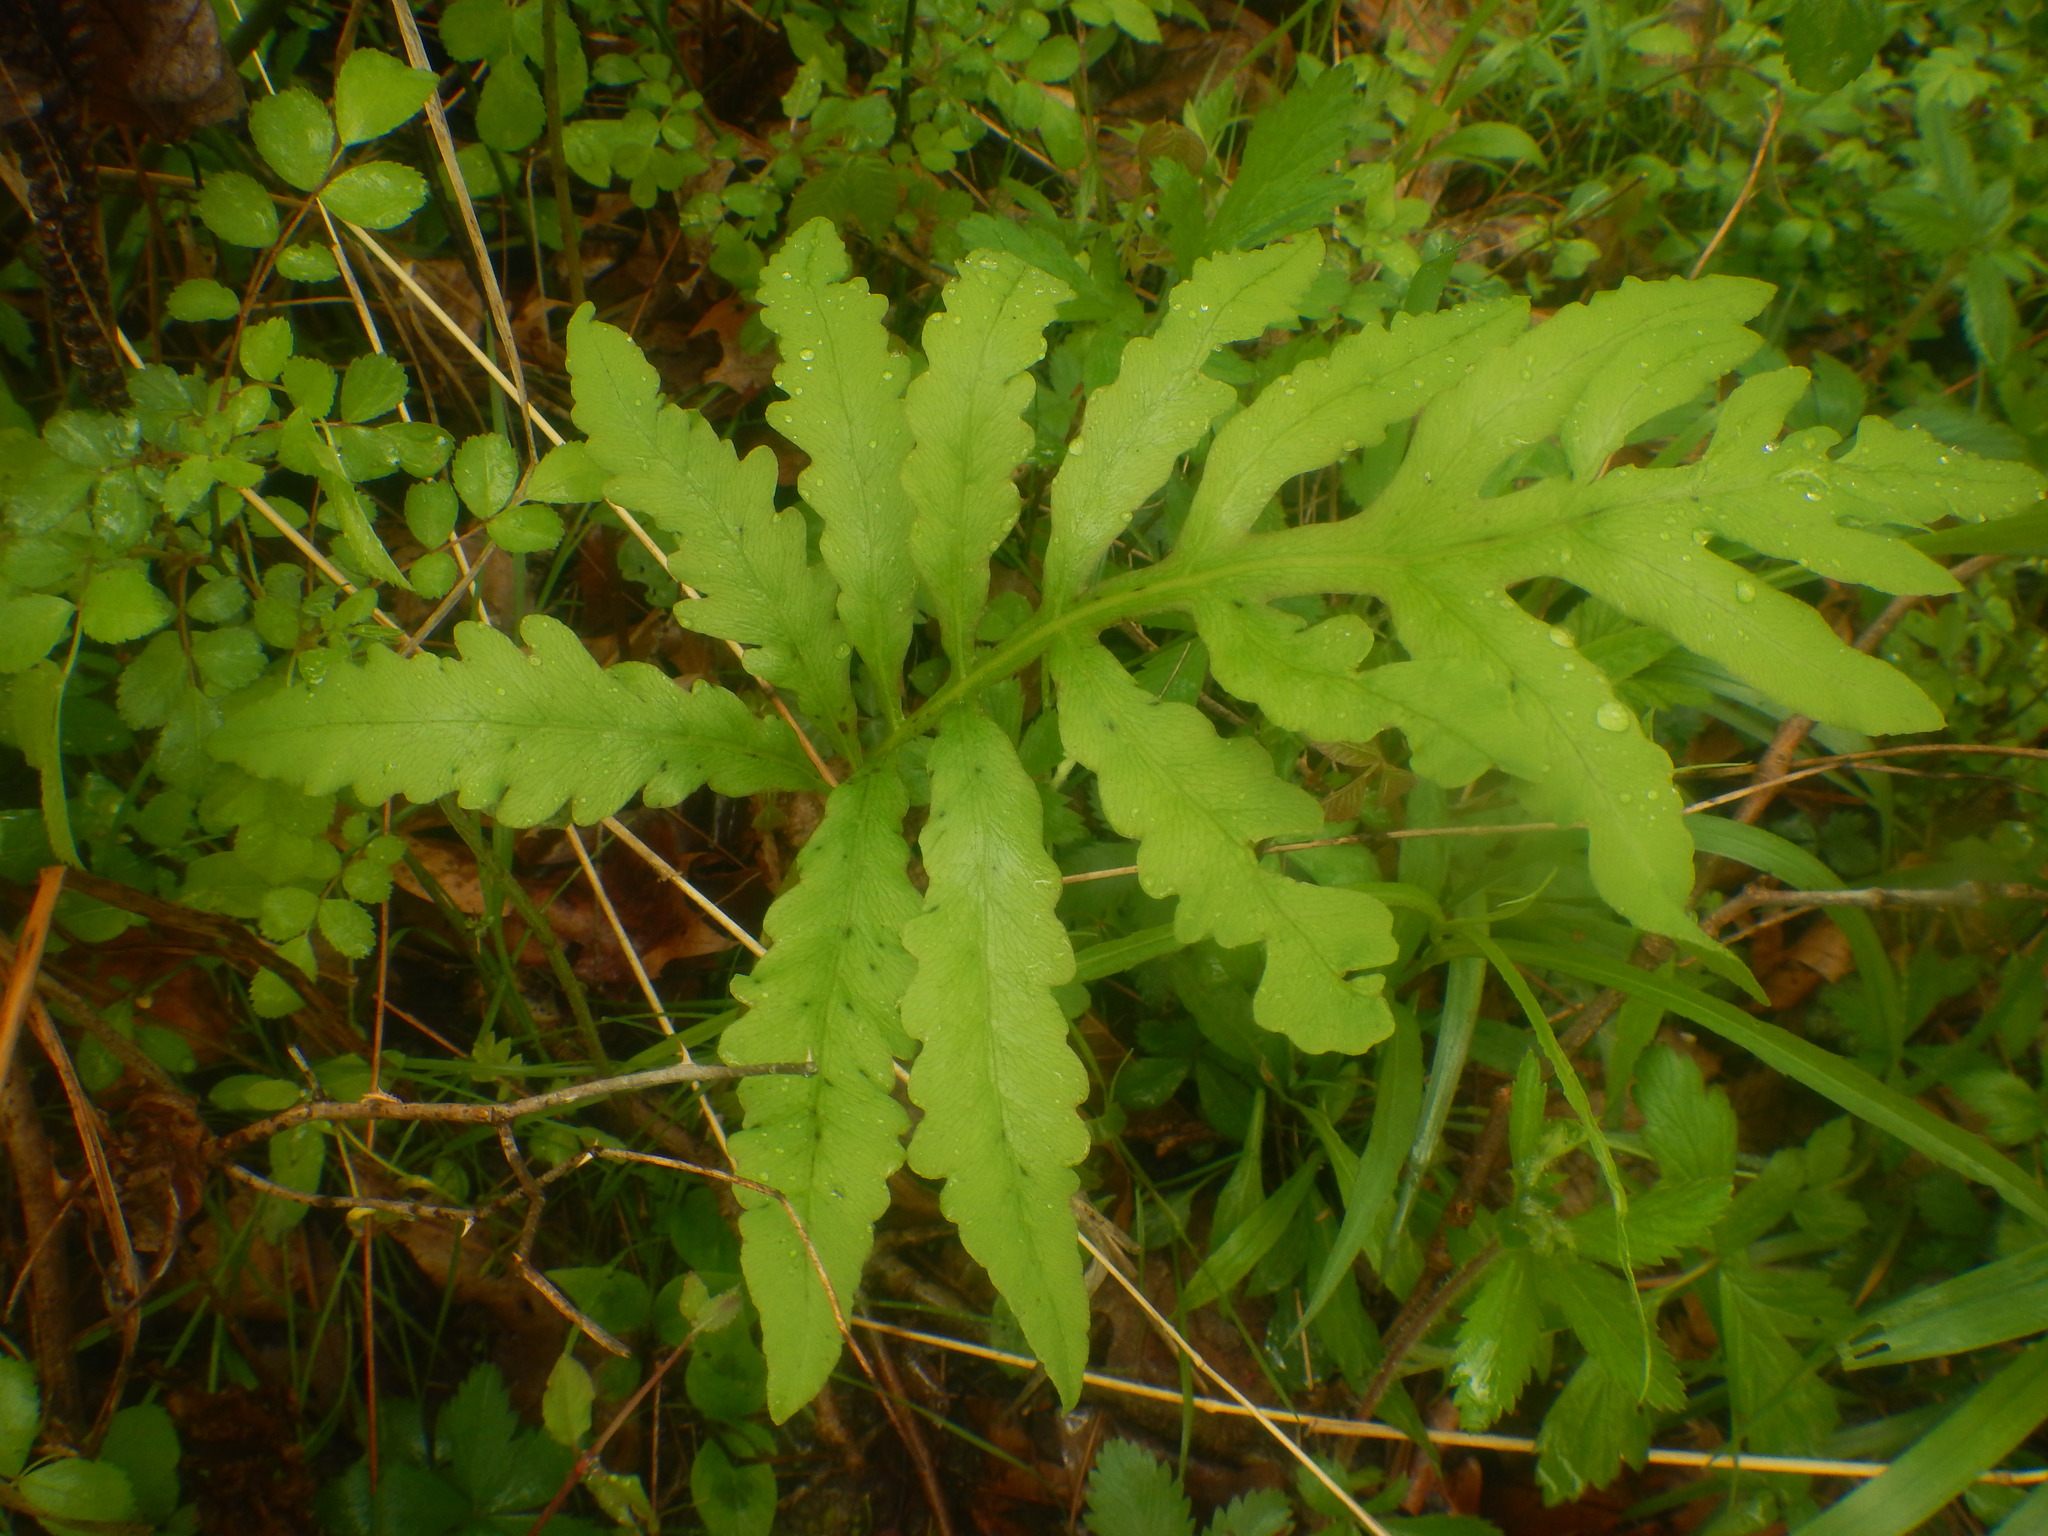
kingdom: Plantae
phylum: Tracheophyta
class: Polypodiopsida
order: Polypodiales
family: Onocleaceae
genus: Onoclea
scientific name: Onoclea sensibilis
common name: Sensitive fern
